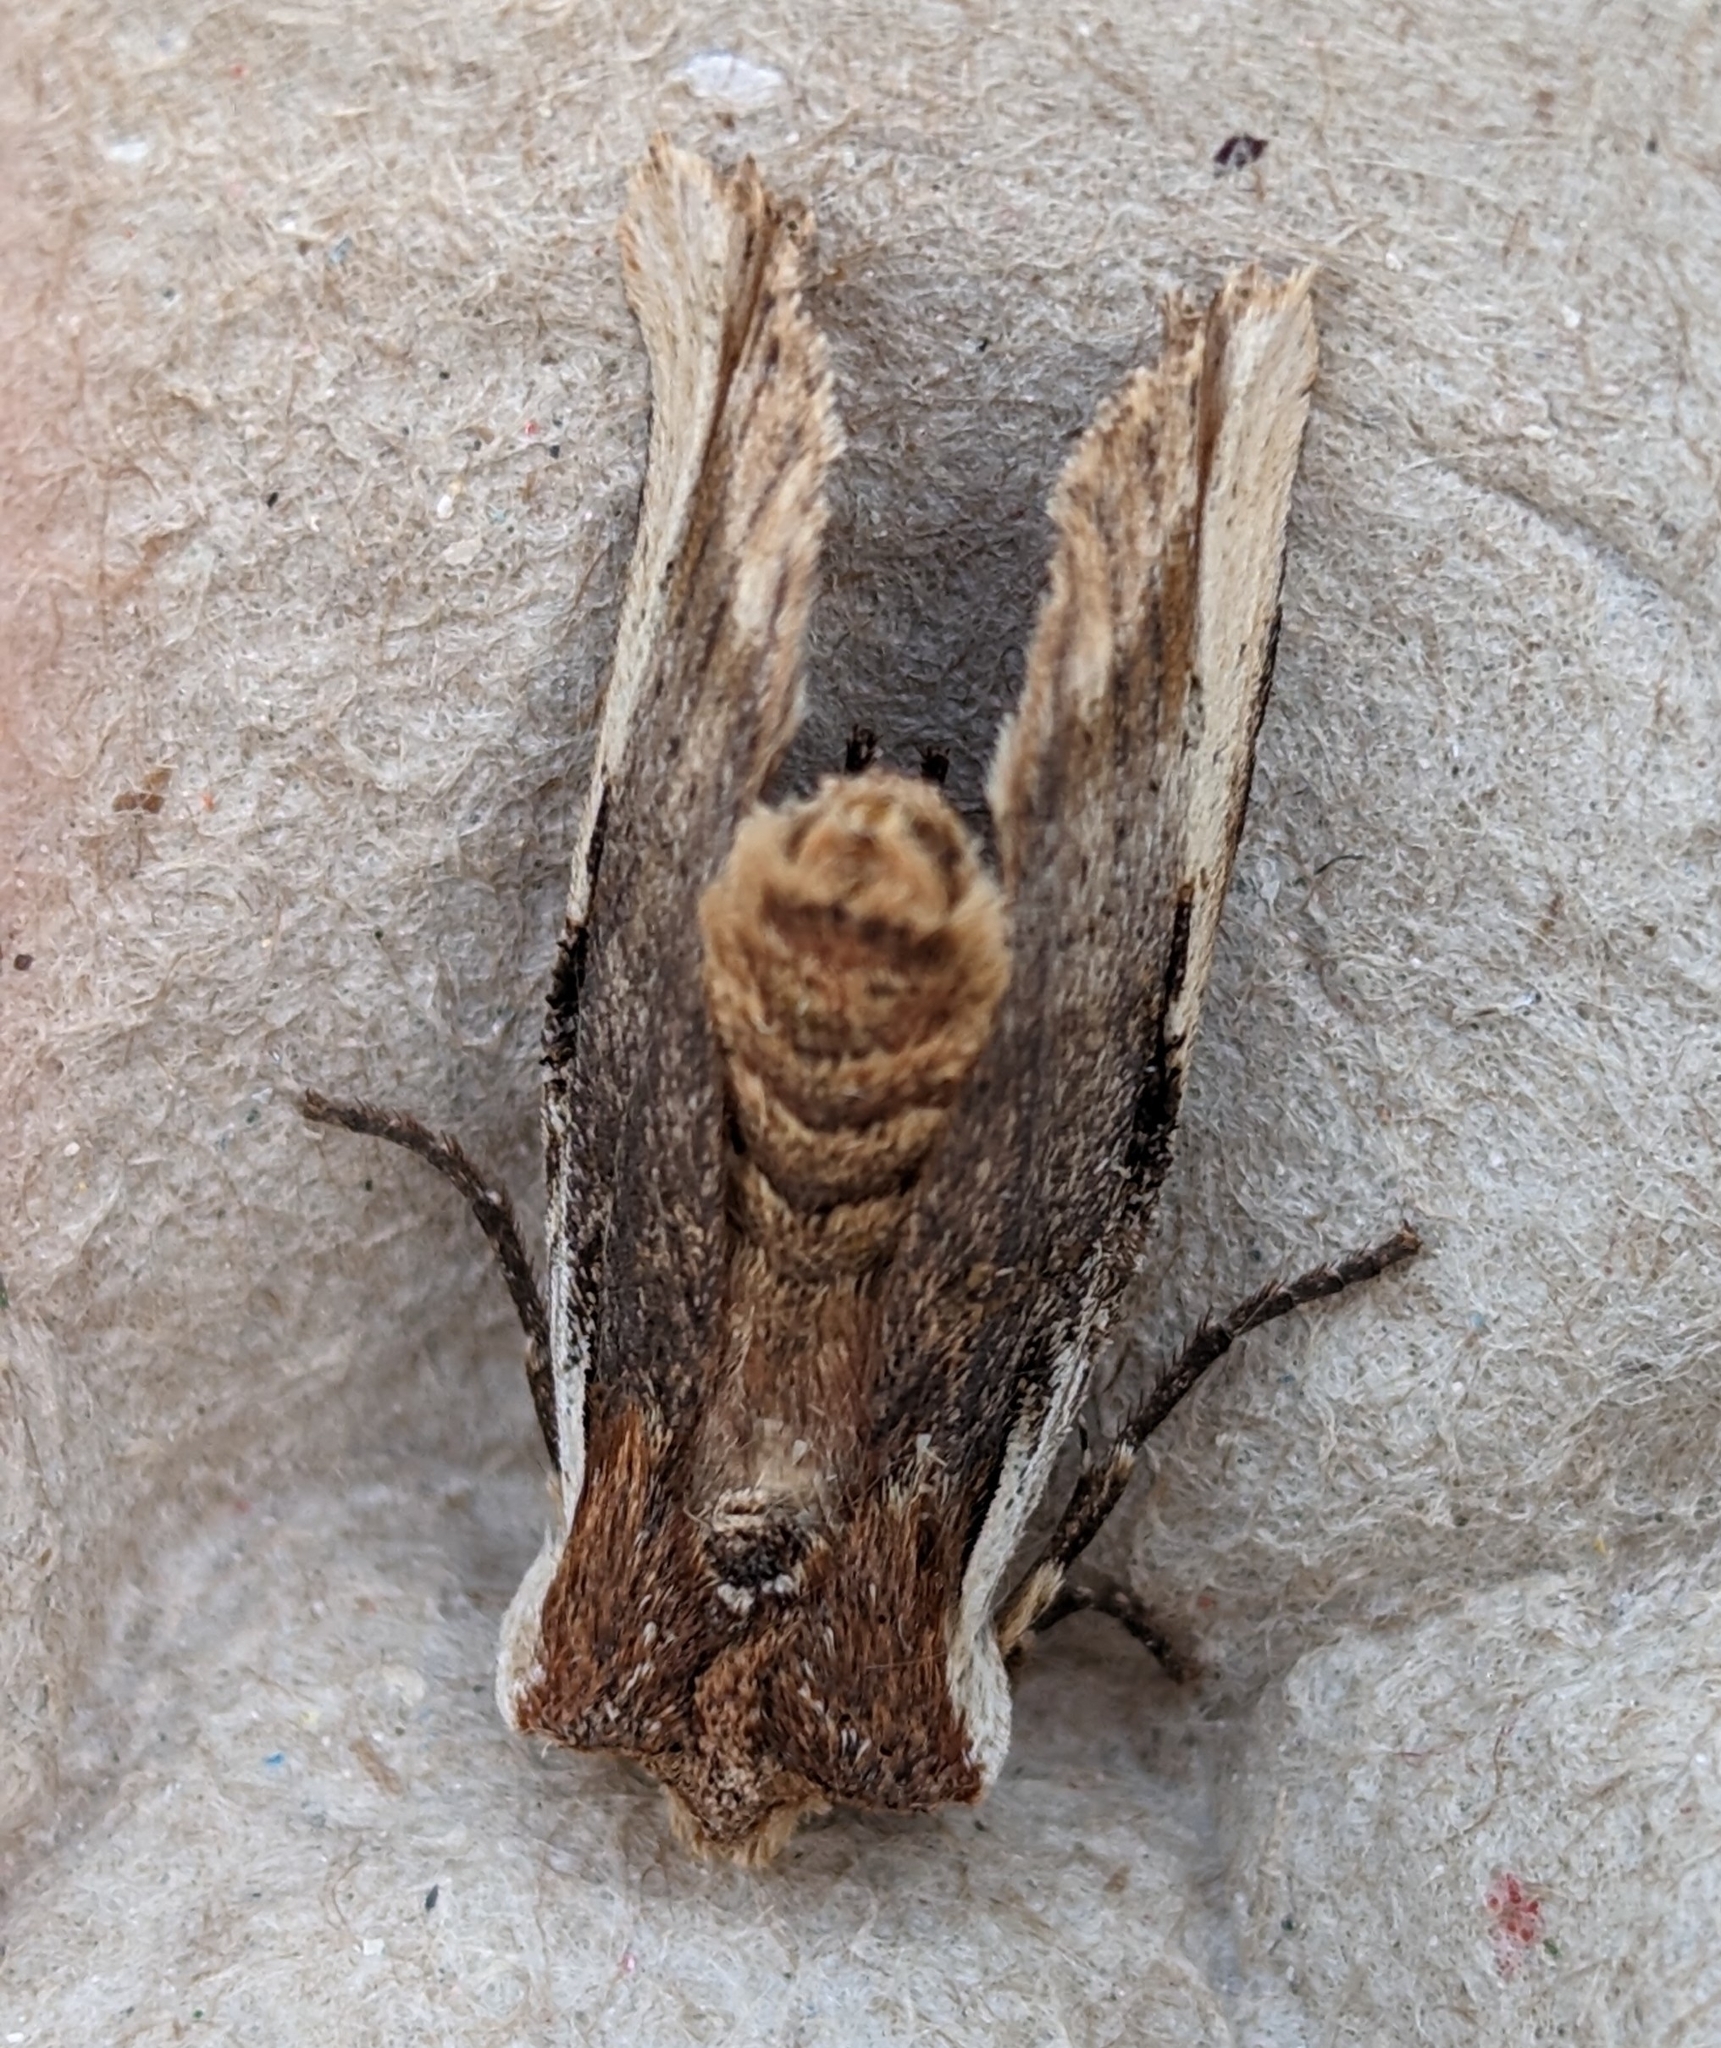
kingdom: Animalia
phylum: Arthropoda
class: Insecta
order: Lepidoptera
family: Noctuidae
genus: Xylena
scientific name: Xylena curvimacula
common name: Dot-and-dash swordgrass moth
